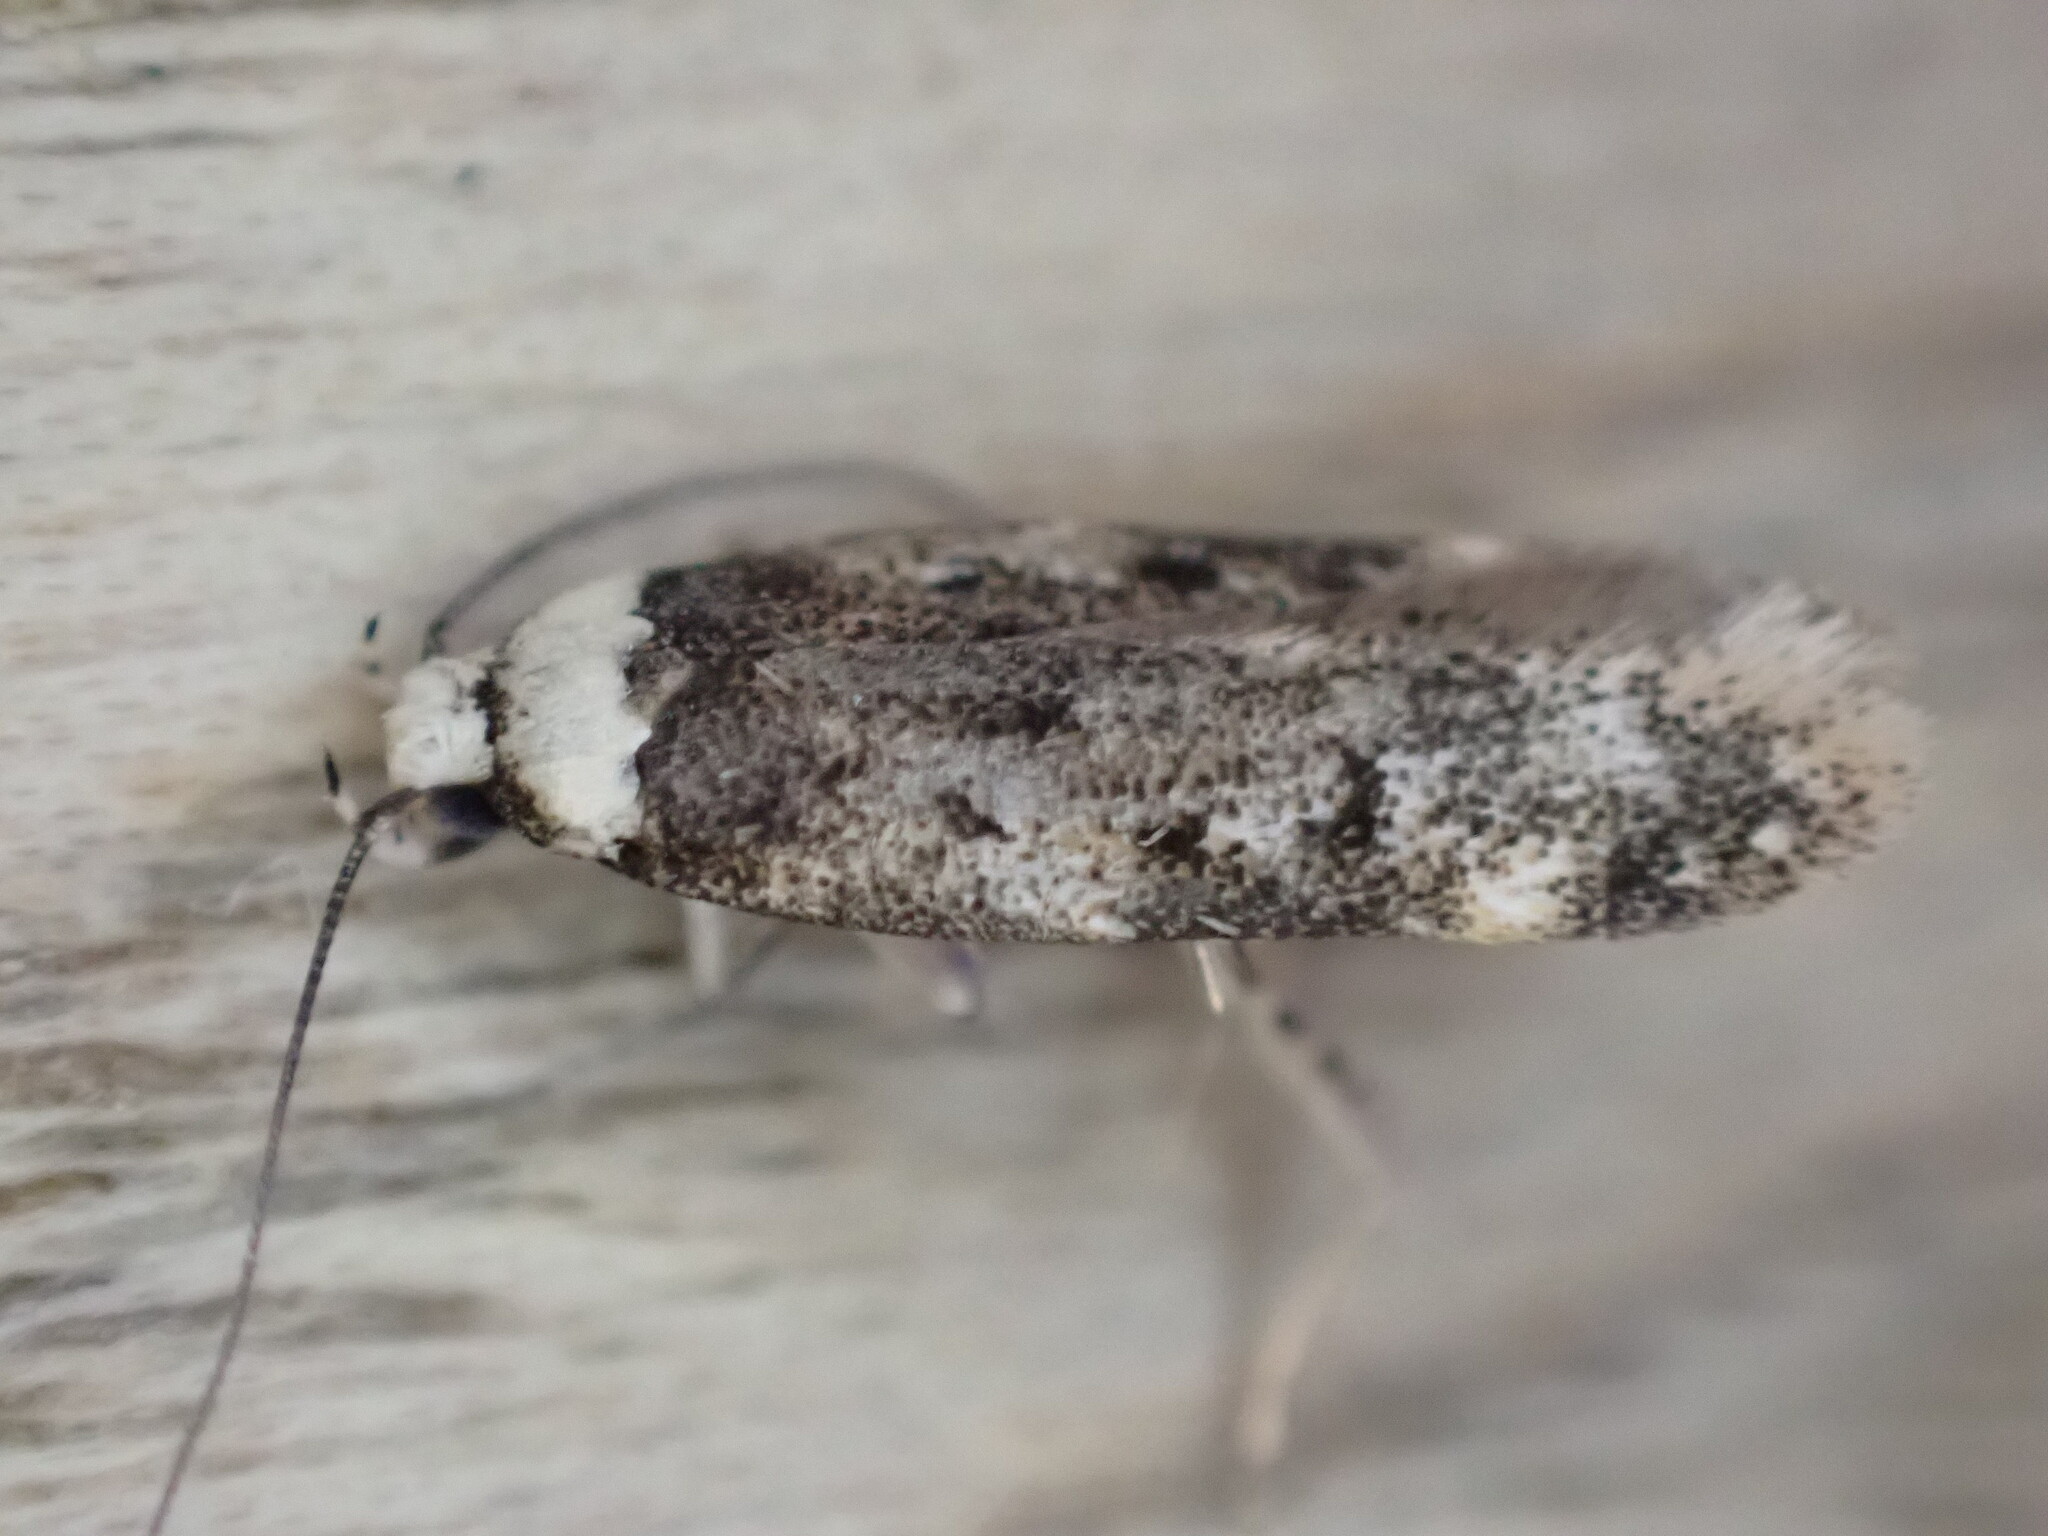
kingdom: Animalia
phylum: Arthropoda
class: Insecta
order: Lepidoptera
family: Oecophoridae
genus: Endrosis
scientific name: Endrosis sarcitrella
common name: White-shouldered house moth
